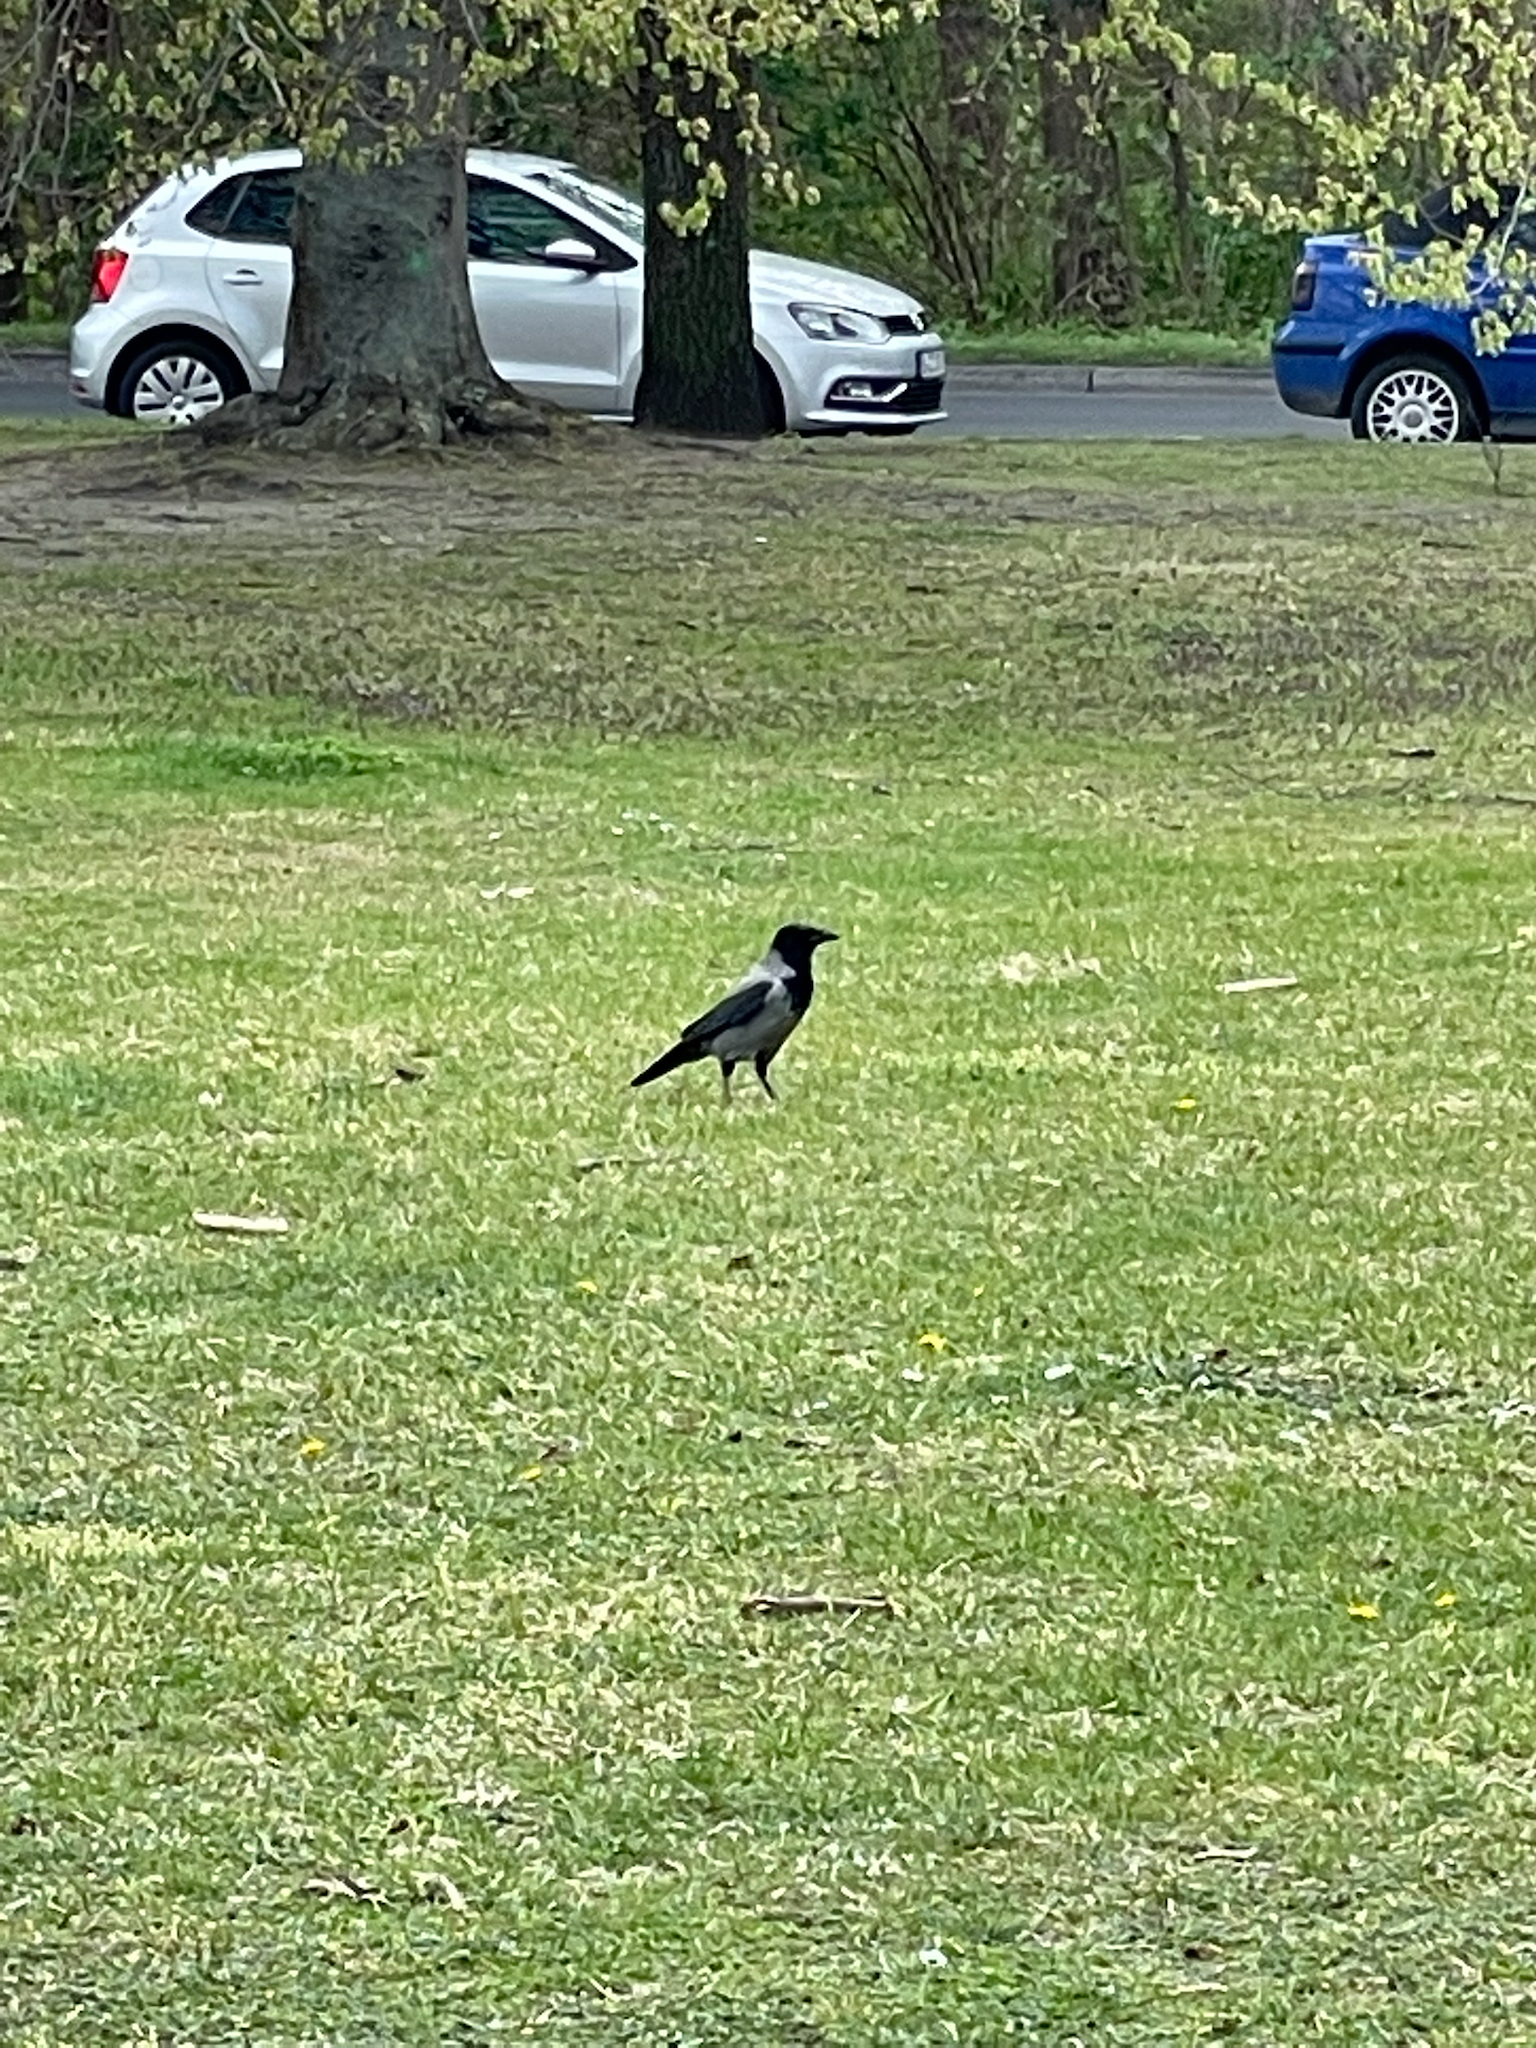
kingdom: Animalia
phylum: Chordata
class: Aves
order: Passeriformes
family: Corvidae
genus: Corvus
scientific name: Corvus cornix
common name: Hooded crow
